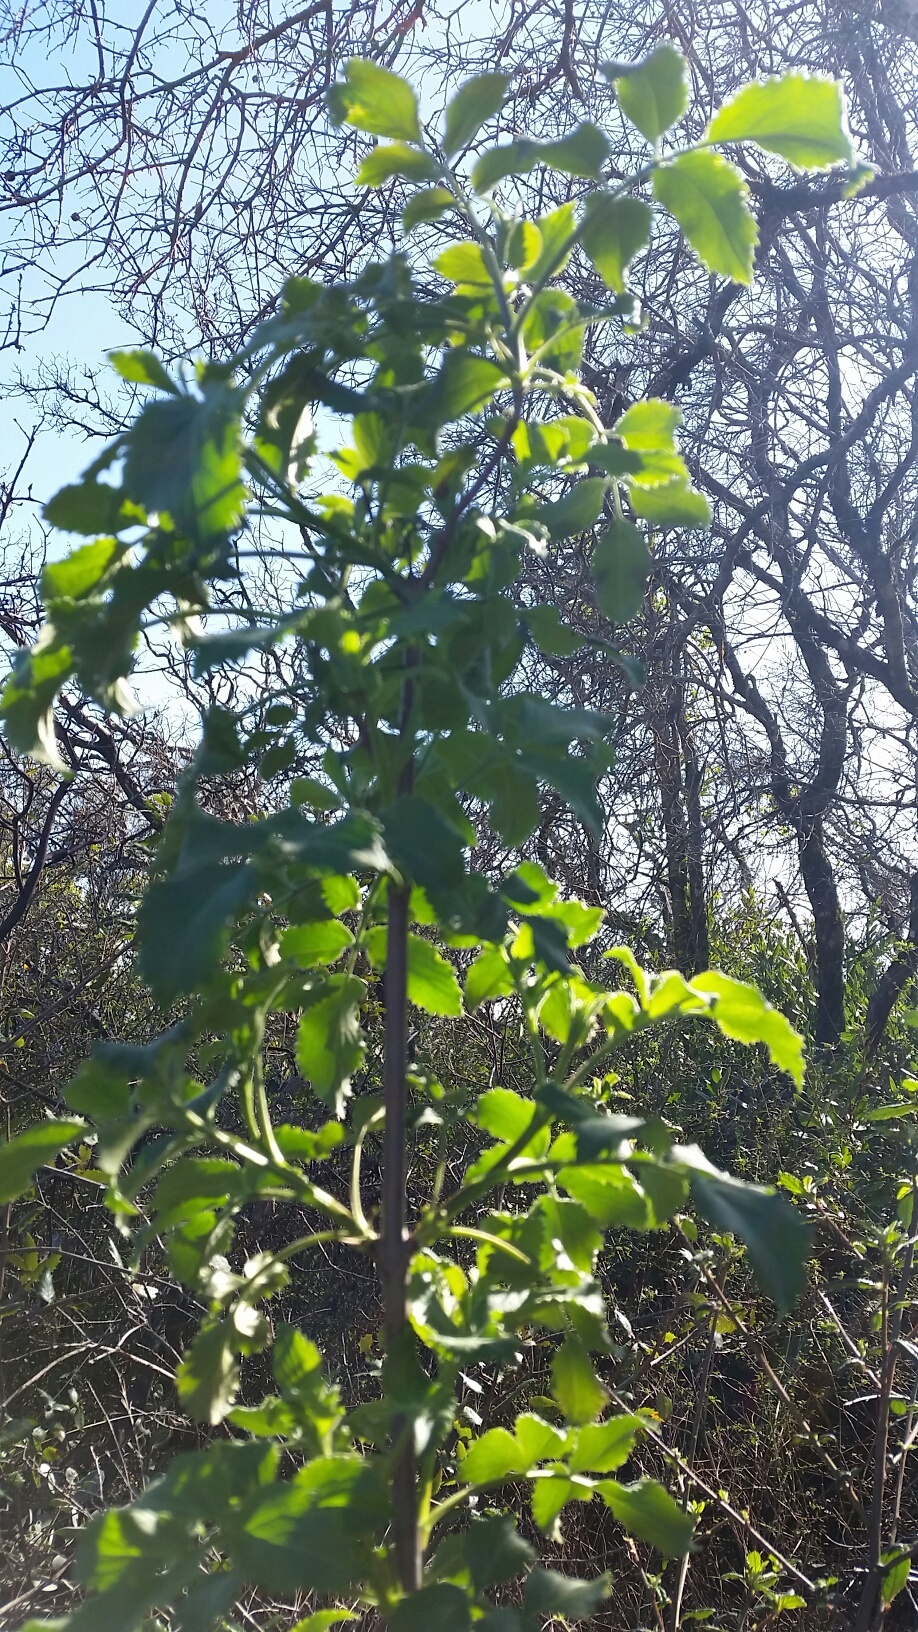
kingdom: Plantae
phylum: Tracheophyta
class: Magnoliopsida
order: Dipsacales
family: Viburnaceae
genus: Sambucus
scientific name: Sambucus cerulea
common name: Blue elder
